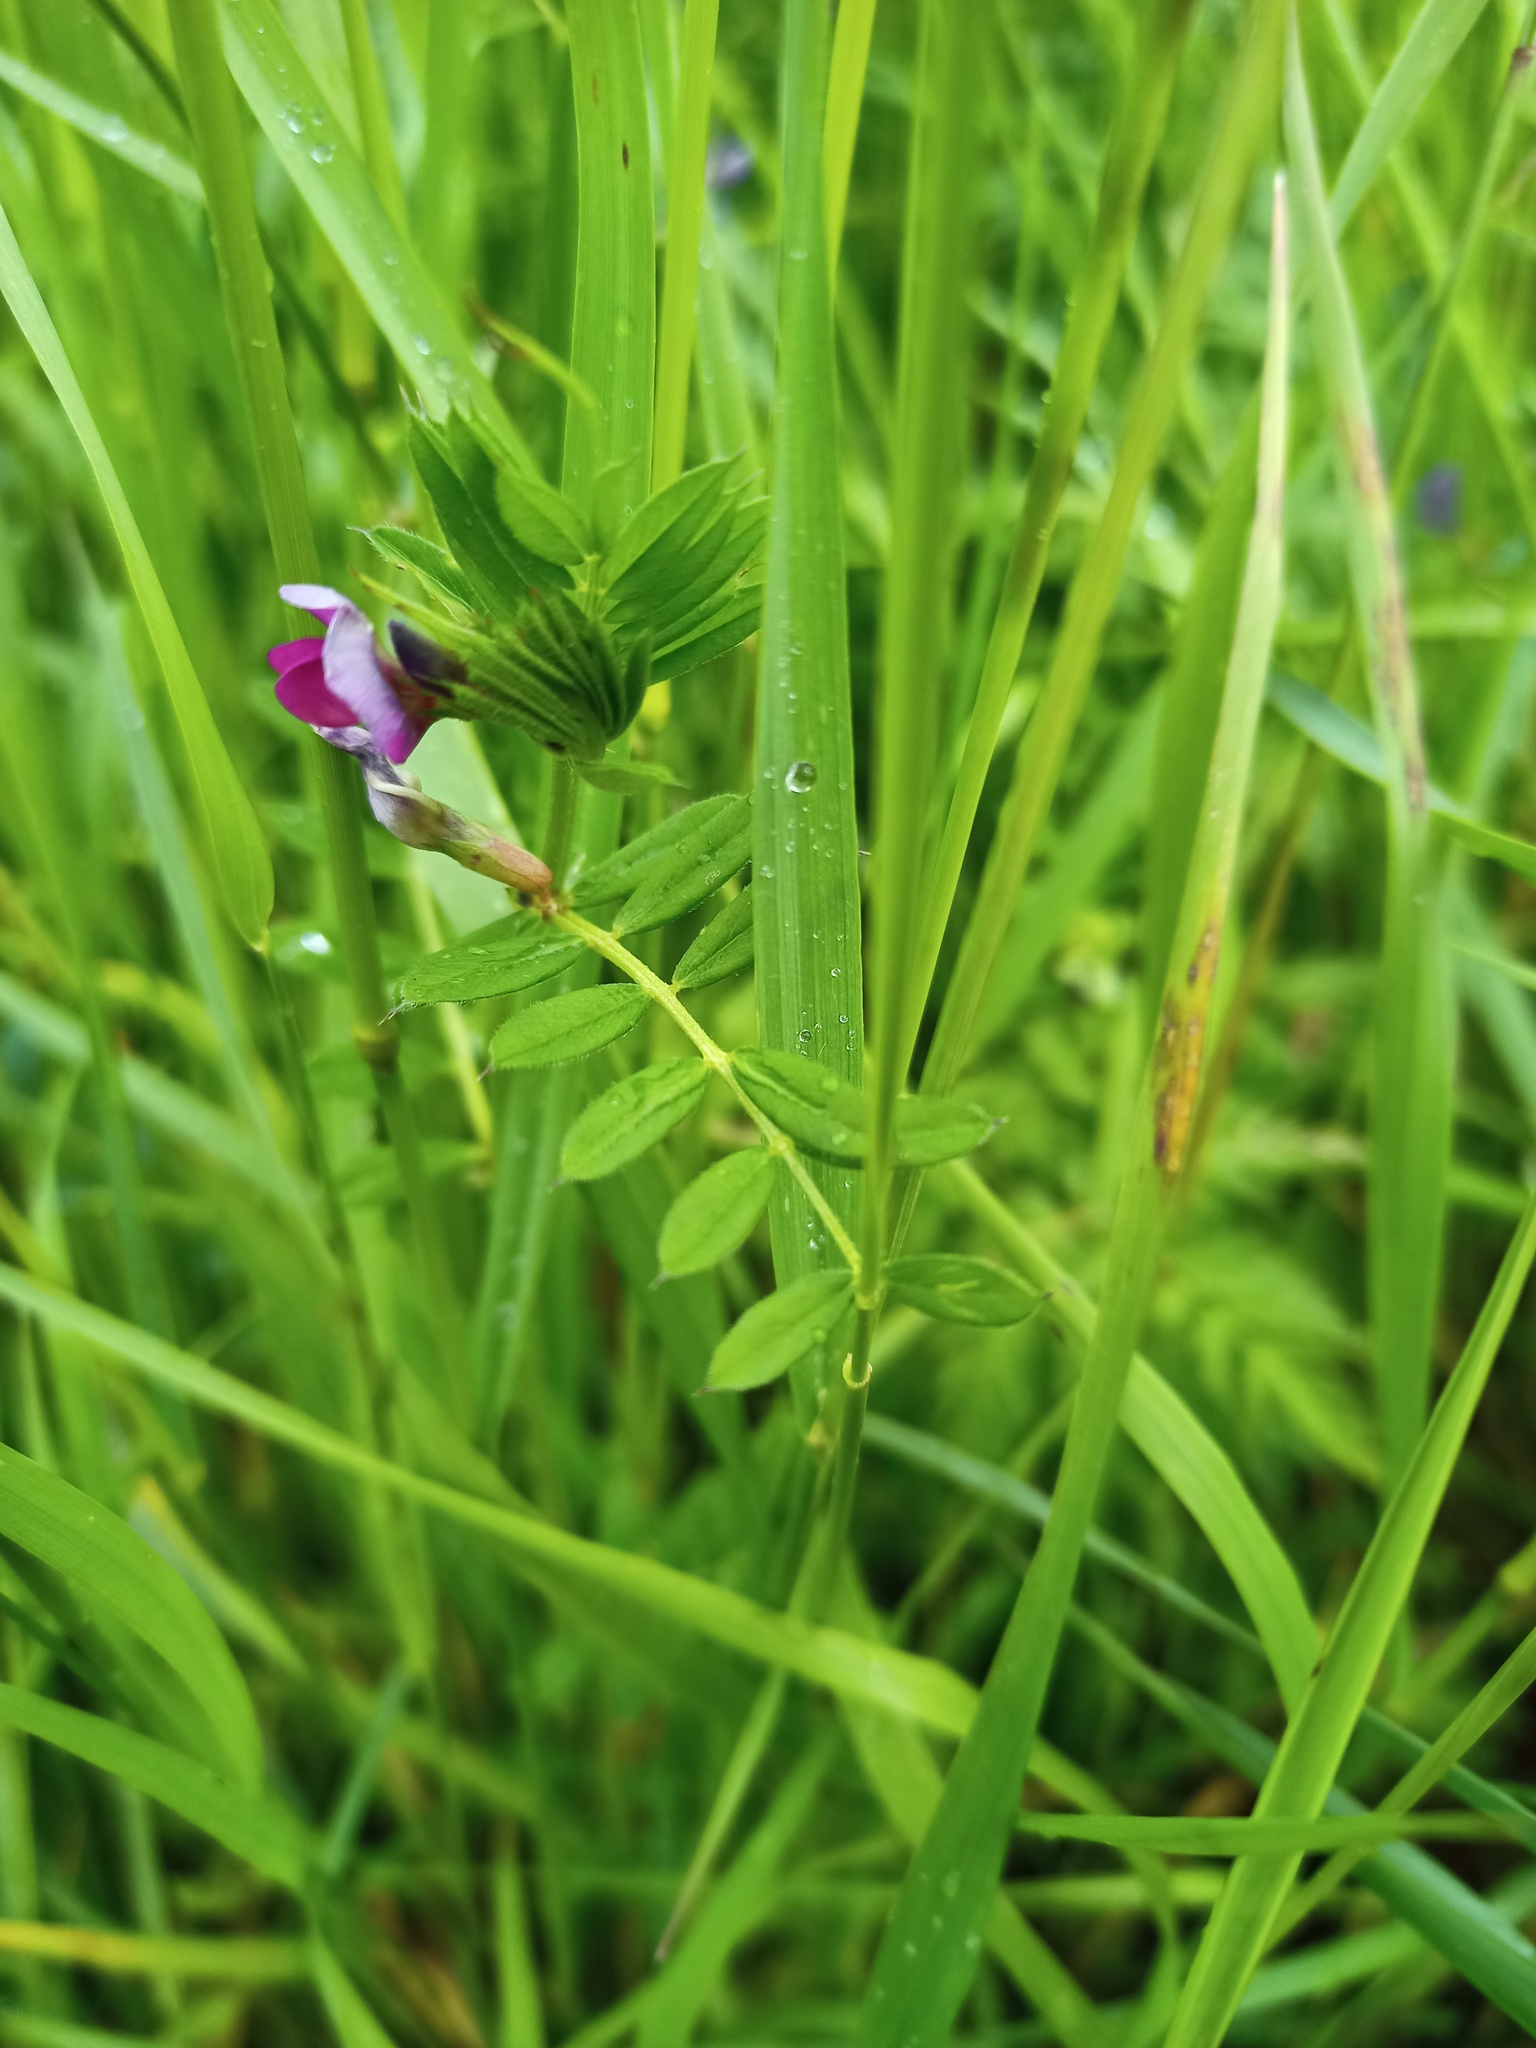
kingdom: Plantae
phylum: Tracheophyta
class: Magnoliopsida
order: Fabales
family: Fabaceae
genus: Vicia
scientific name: Vicia sativa
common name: Garden vetch
